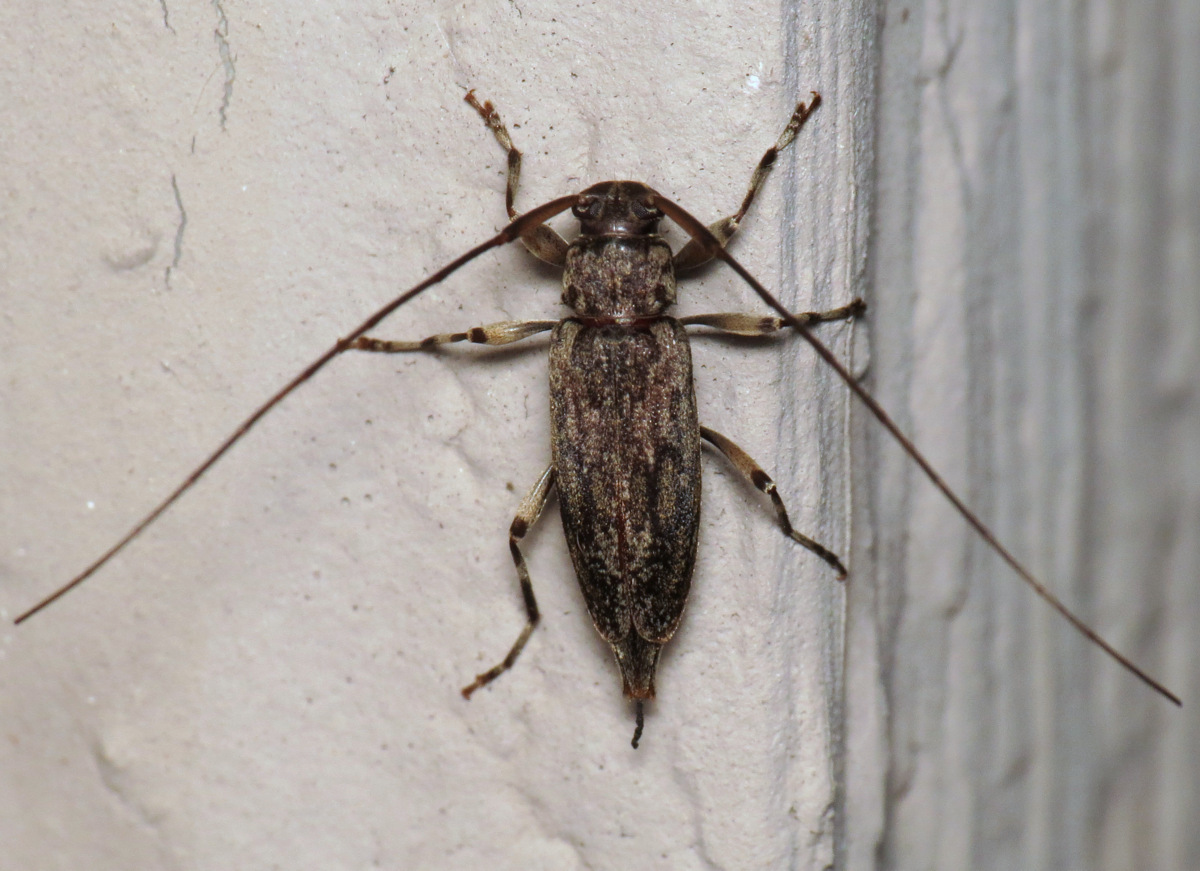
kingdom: Animalia
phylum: Arthropoda
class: Insecta
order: Coleoptera
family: Cerambycidae
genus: Lepturges
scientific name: Lepturges confluens
